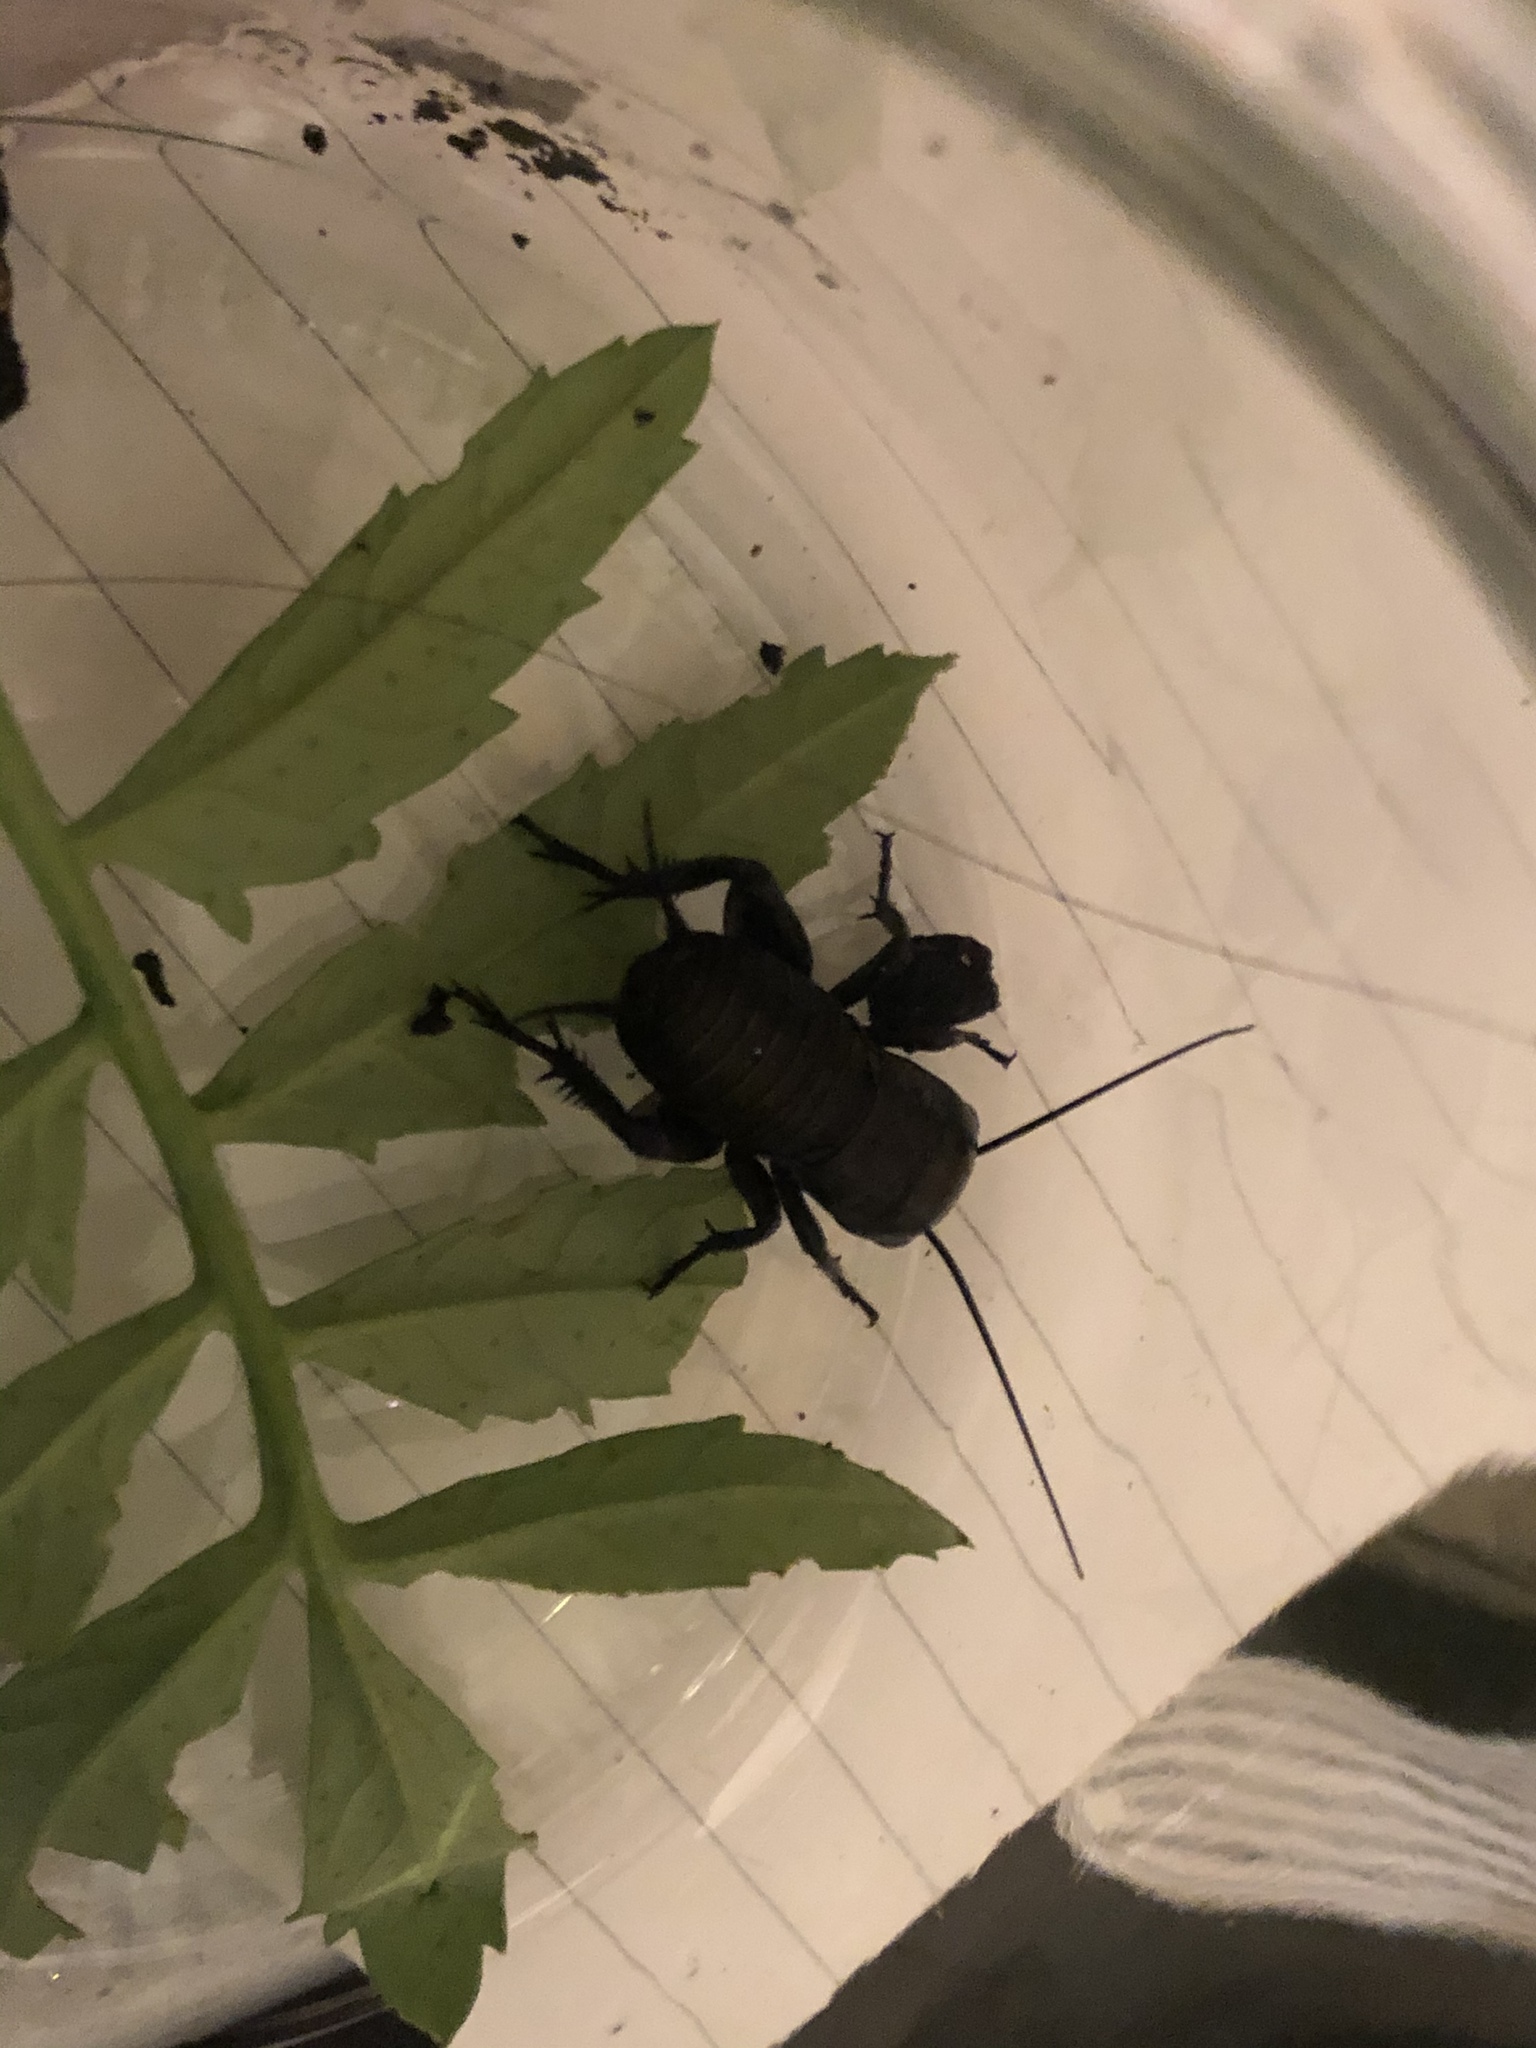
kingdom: Animalia
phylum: Arthropoda
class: Insecta
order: Orthoptera
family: Gryllidae
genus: Gryllus
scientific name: Gryllus campestris
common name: Field cricket
